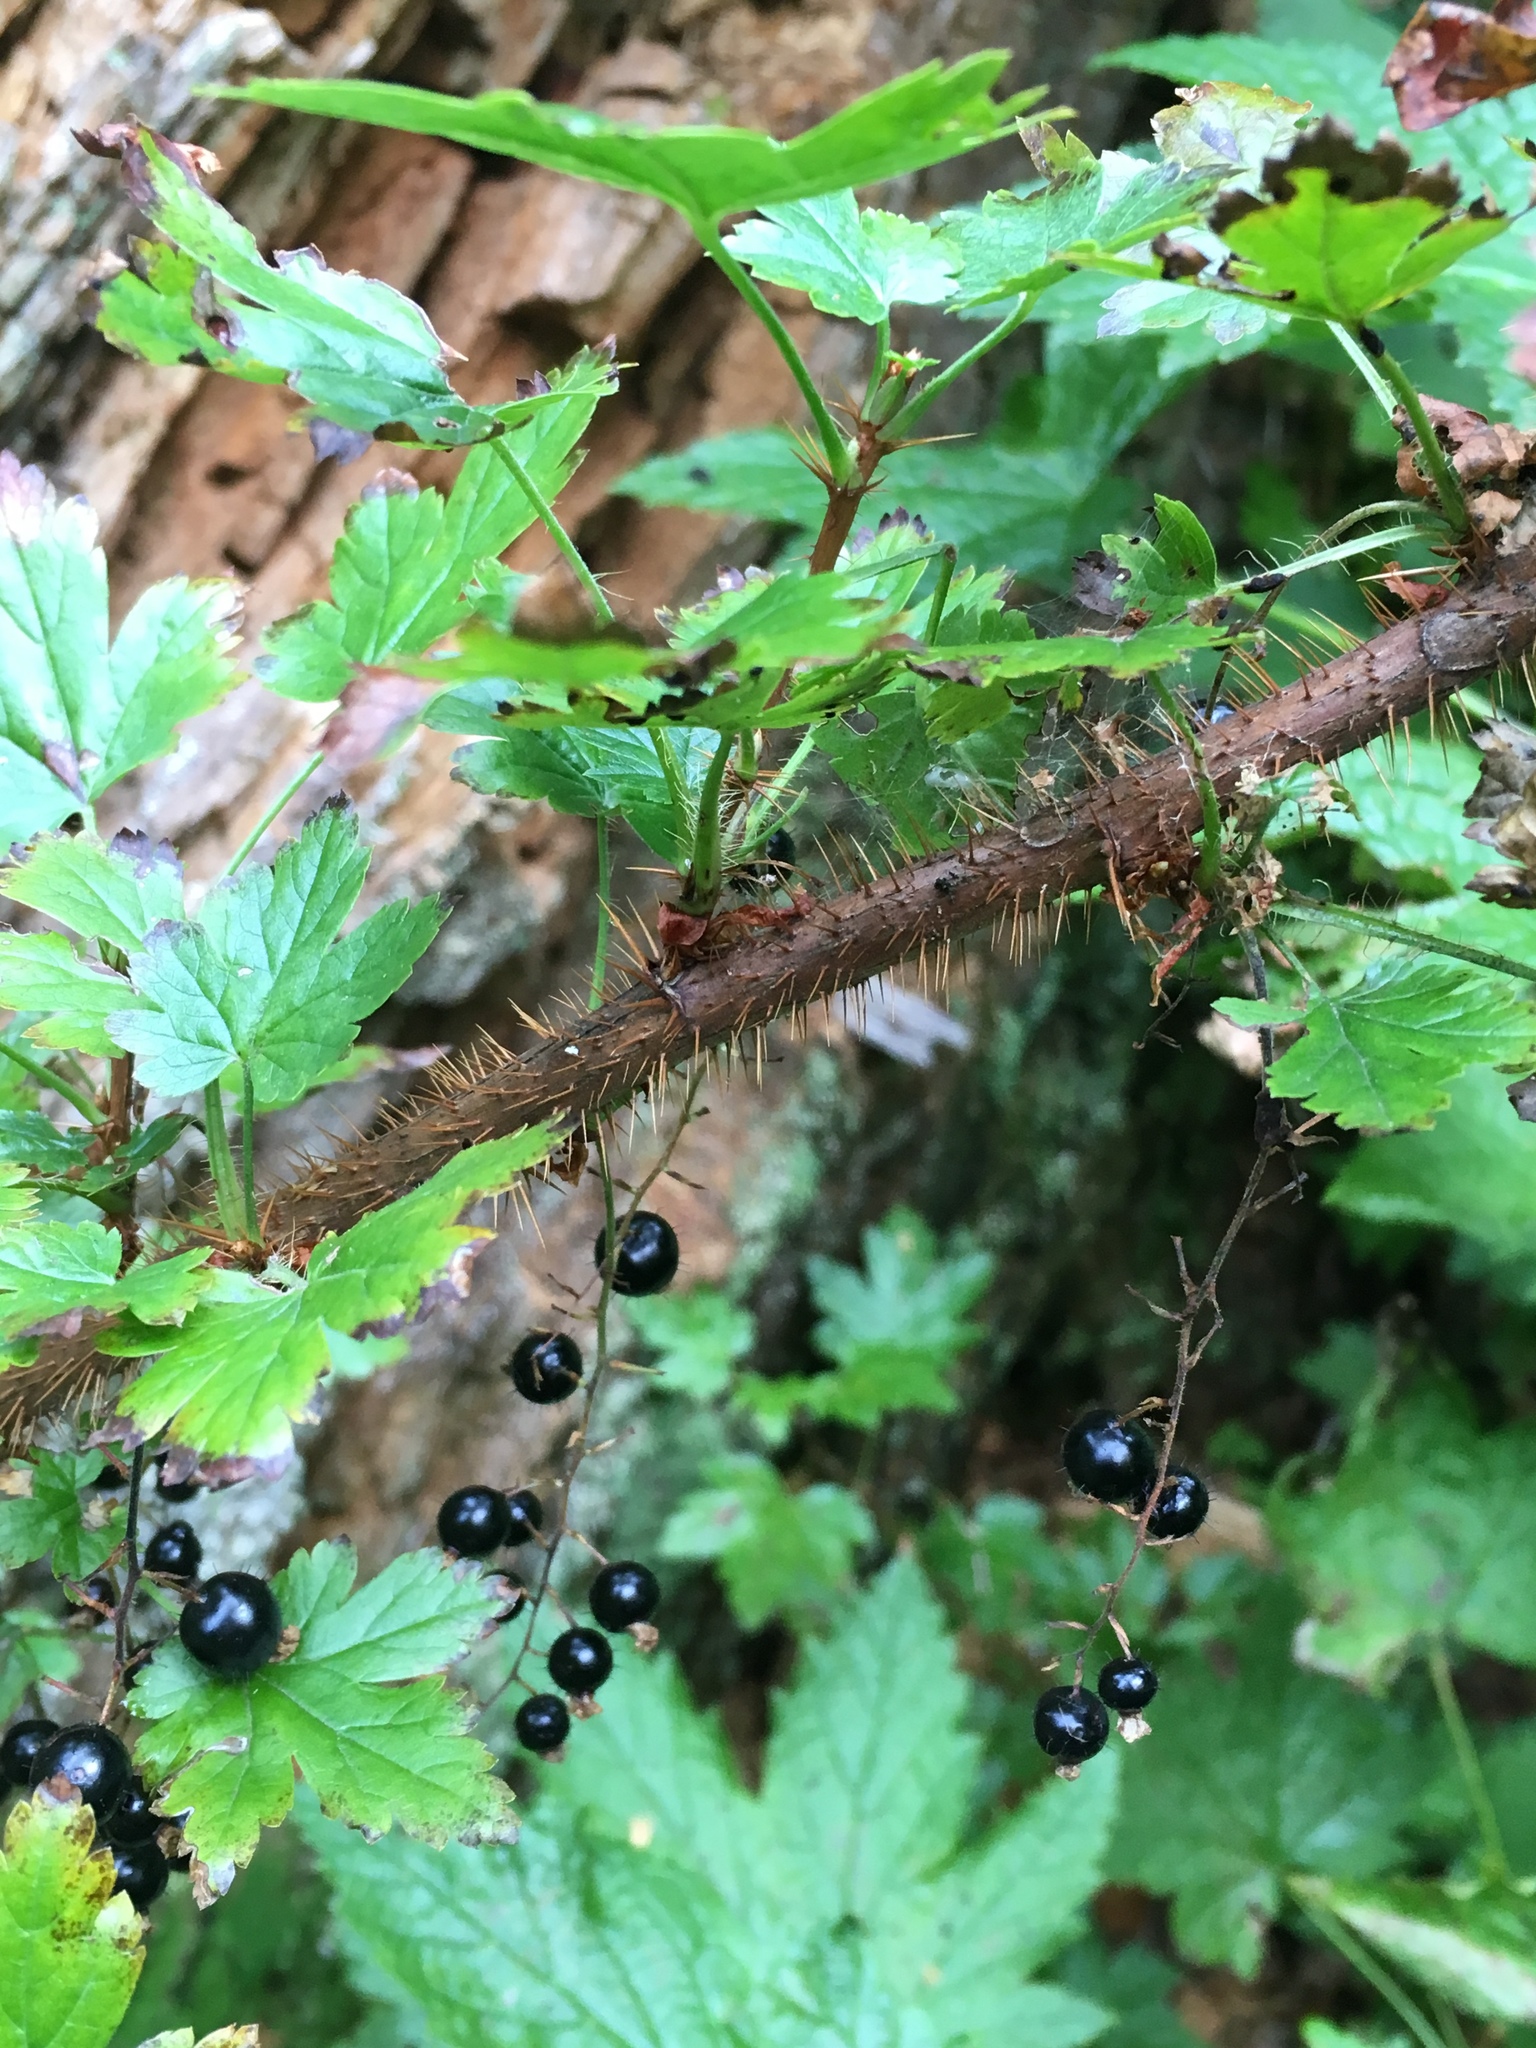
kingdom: Plantae
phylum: Tracheophyta
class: Magnoliopsida
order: Saxifragales
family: Grossulariaceae
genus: Ribes
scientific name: Ribes lacustre
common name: Black gooseberry
